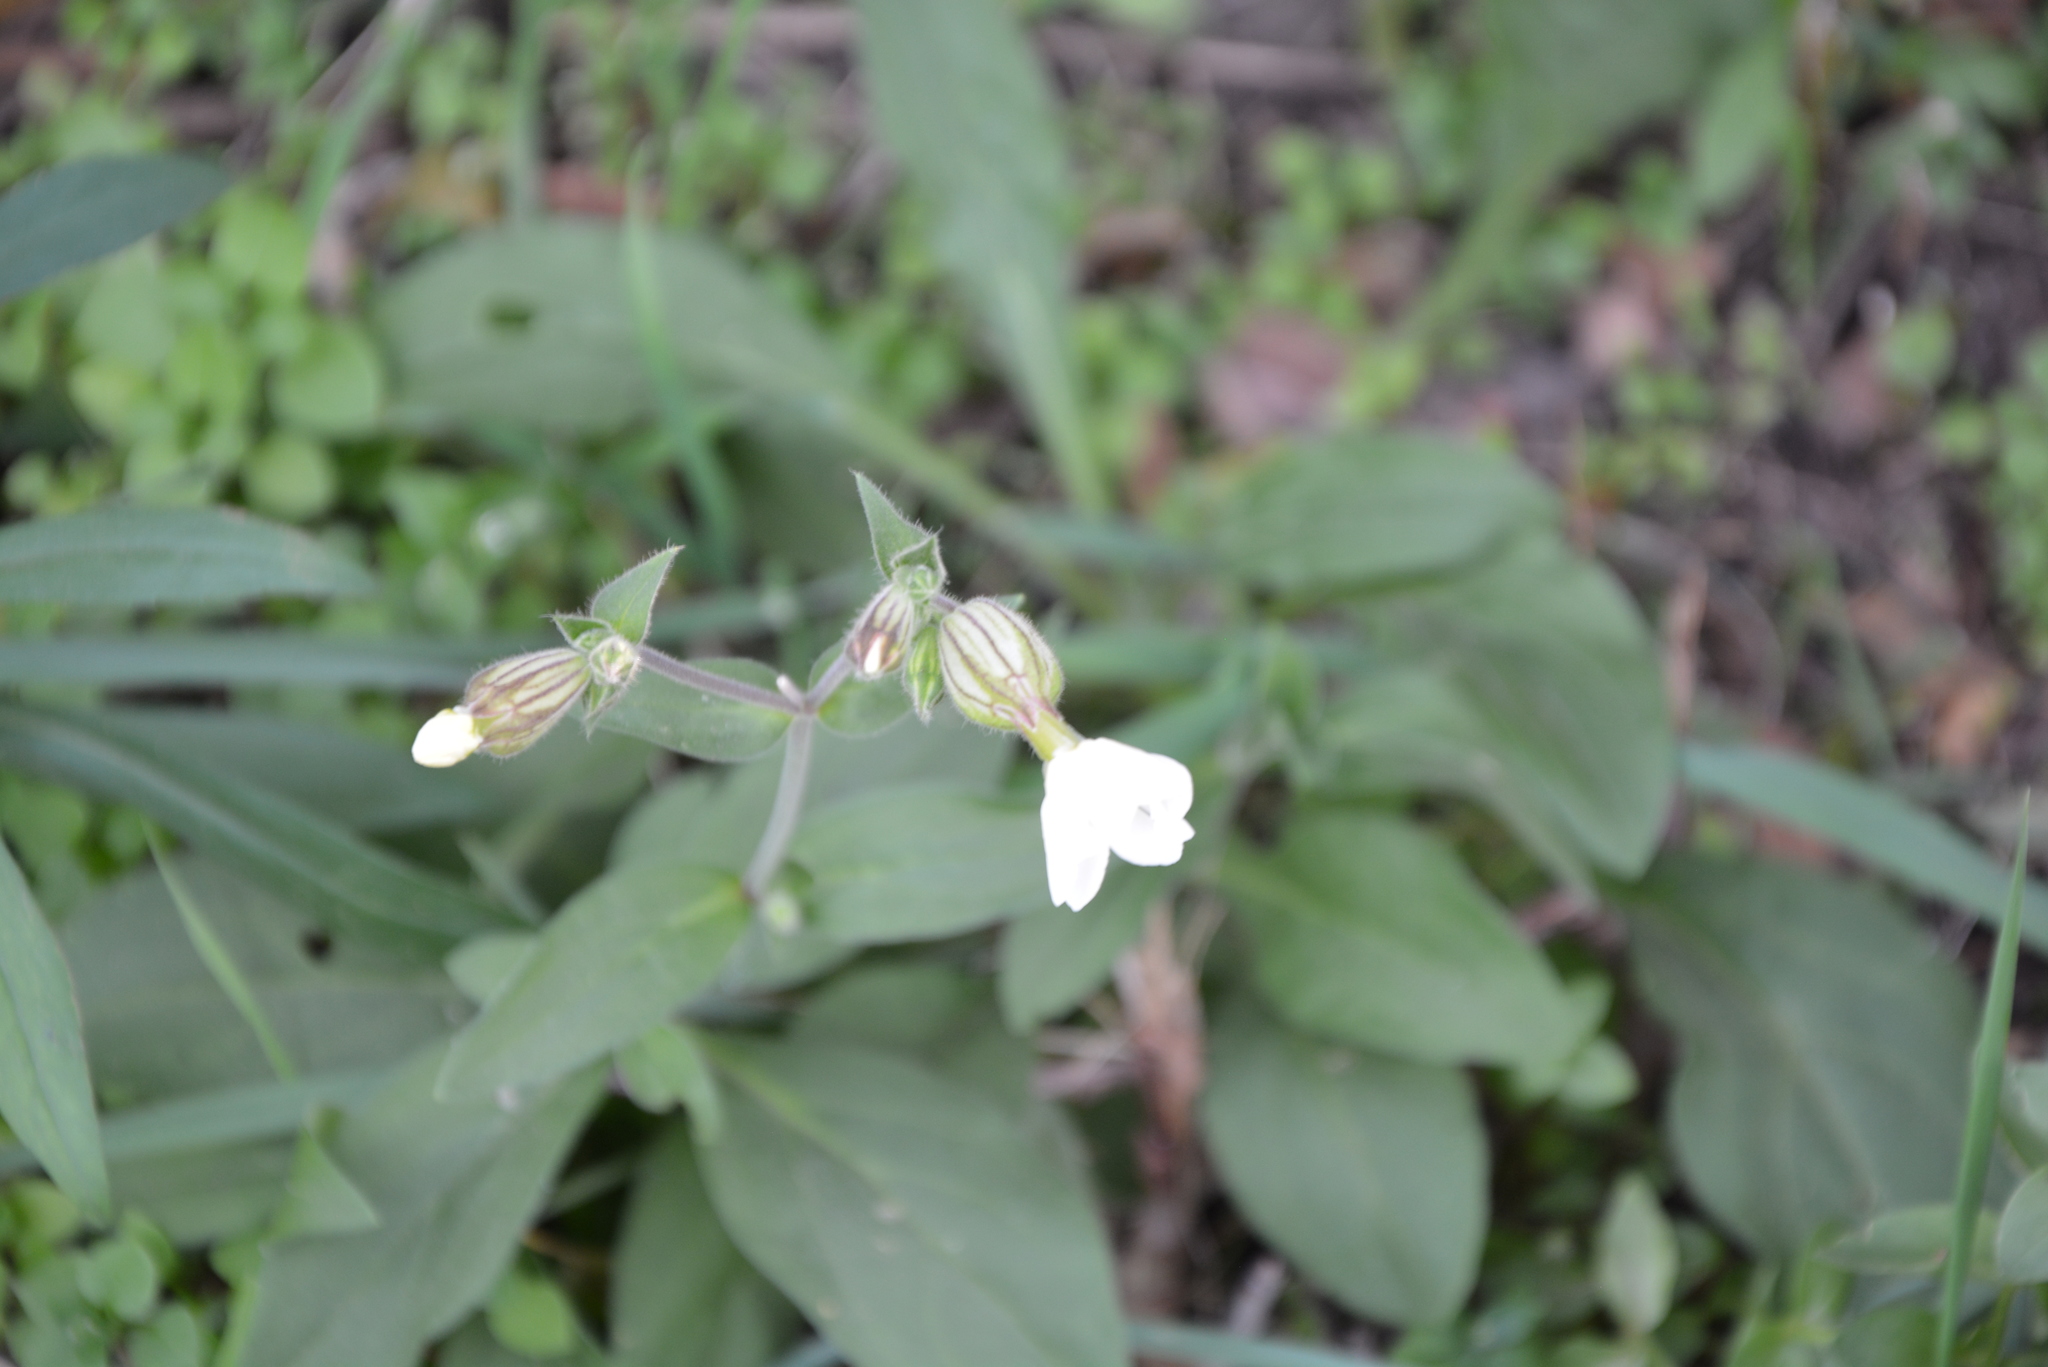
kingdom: Plantae
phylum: Tracheophyta
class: Magnoliopsida
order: Caryophyllales
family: Caryophyllaceae
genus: Silene
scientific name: Silene latifolia
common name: White campion
